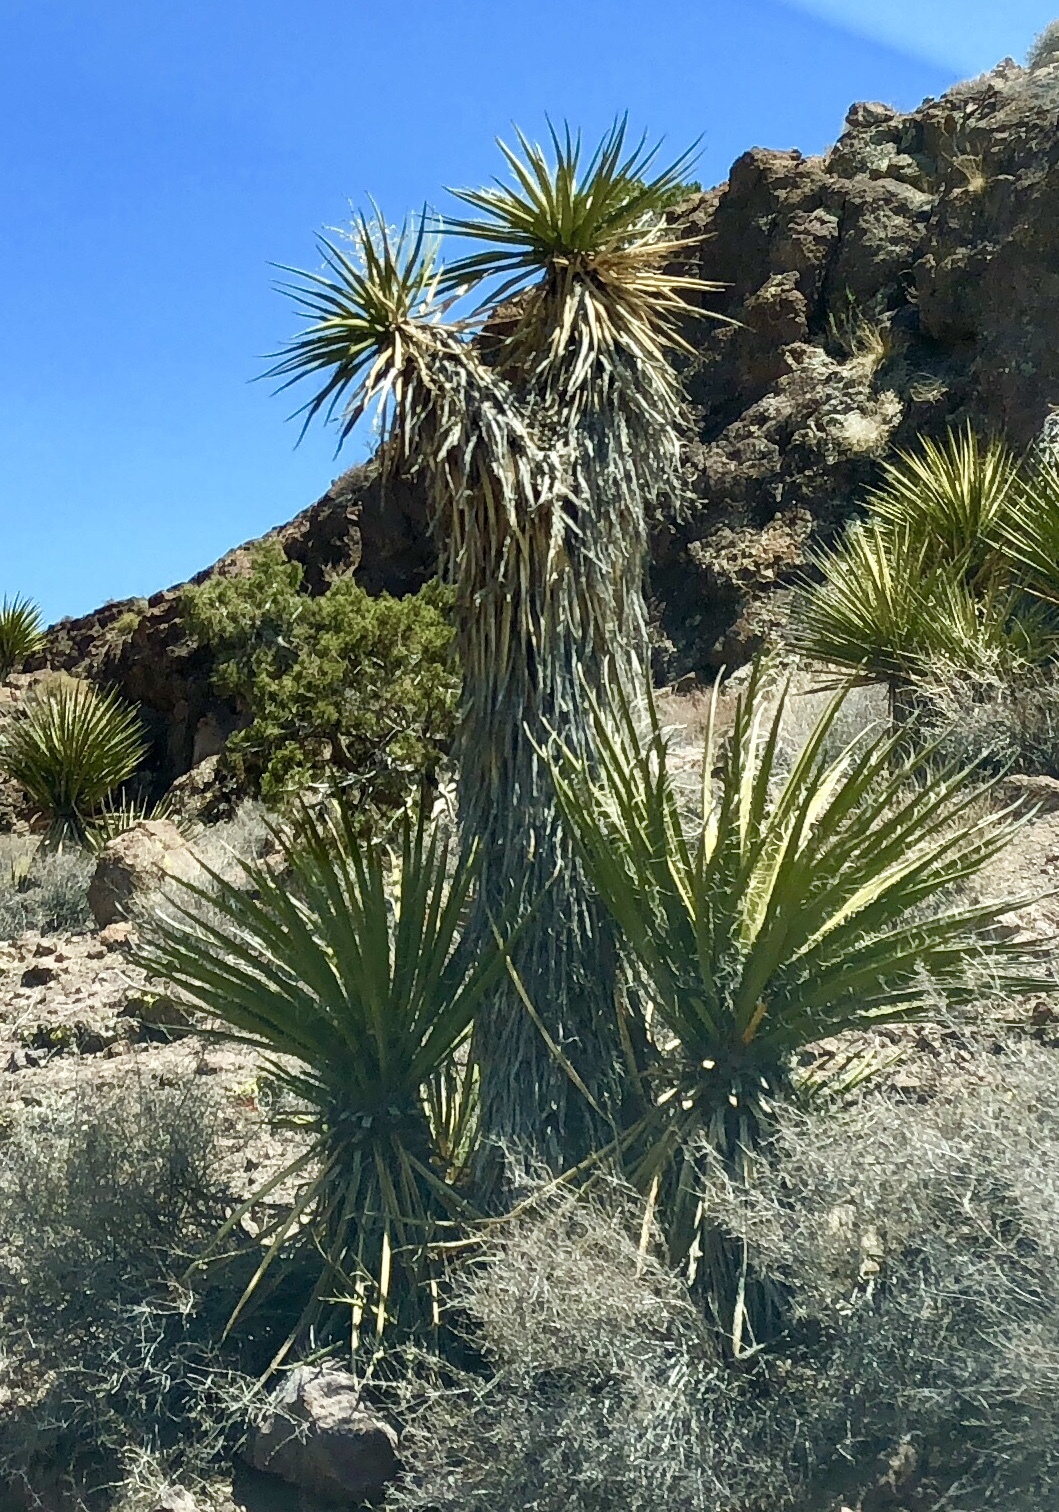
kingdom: Plantae
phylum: Tracheophyta
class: Liliopsida
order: Asparagales
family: Asparagaceae
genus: Yucca
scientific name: Yucca schidigera
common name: Mojave yucca
